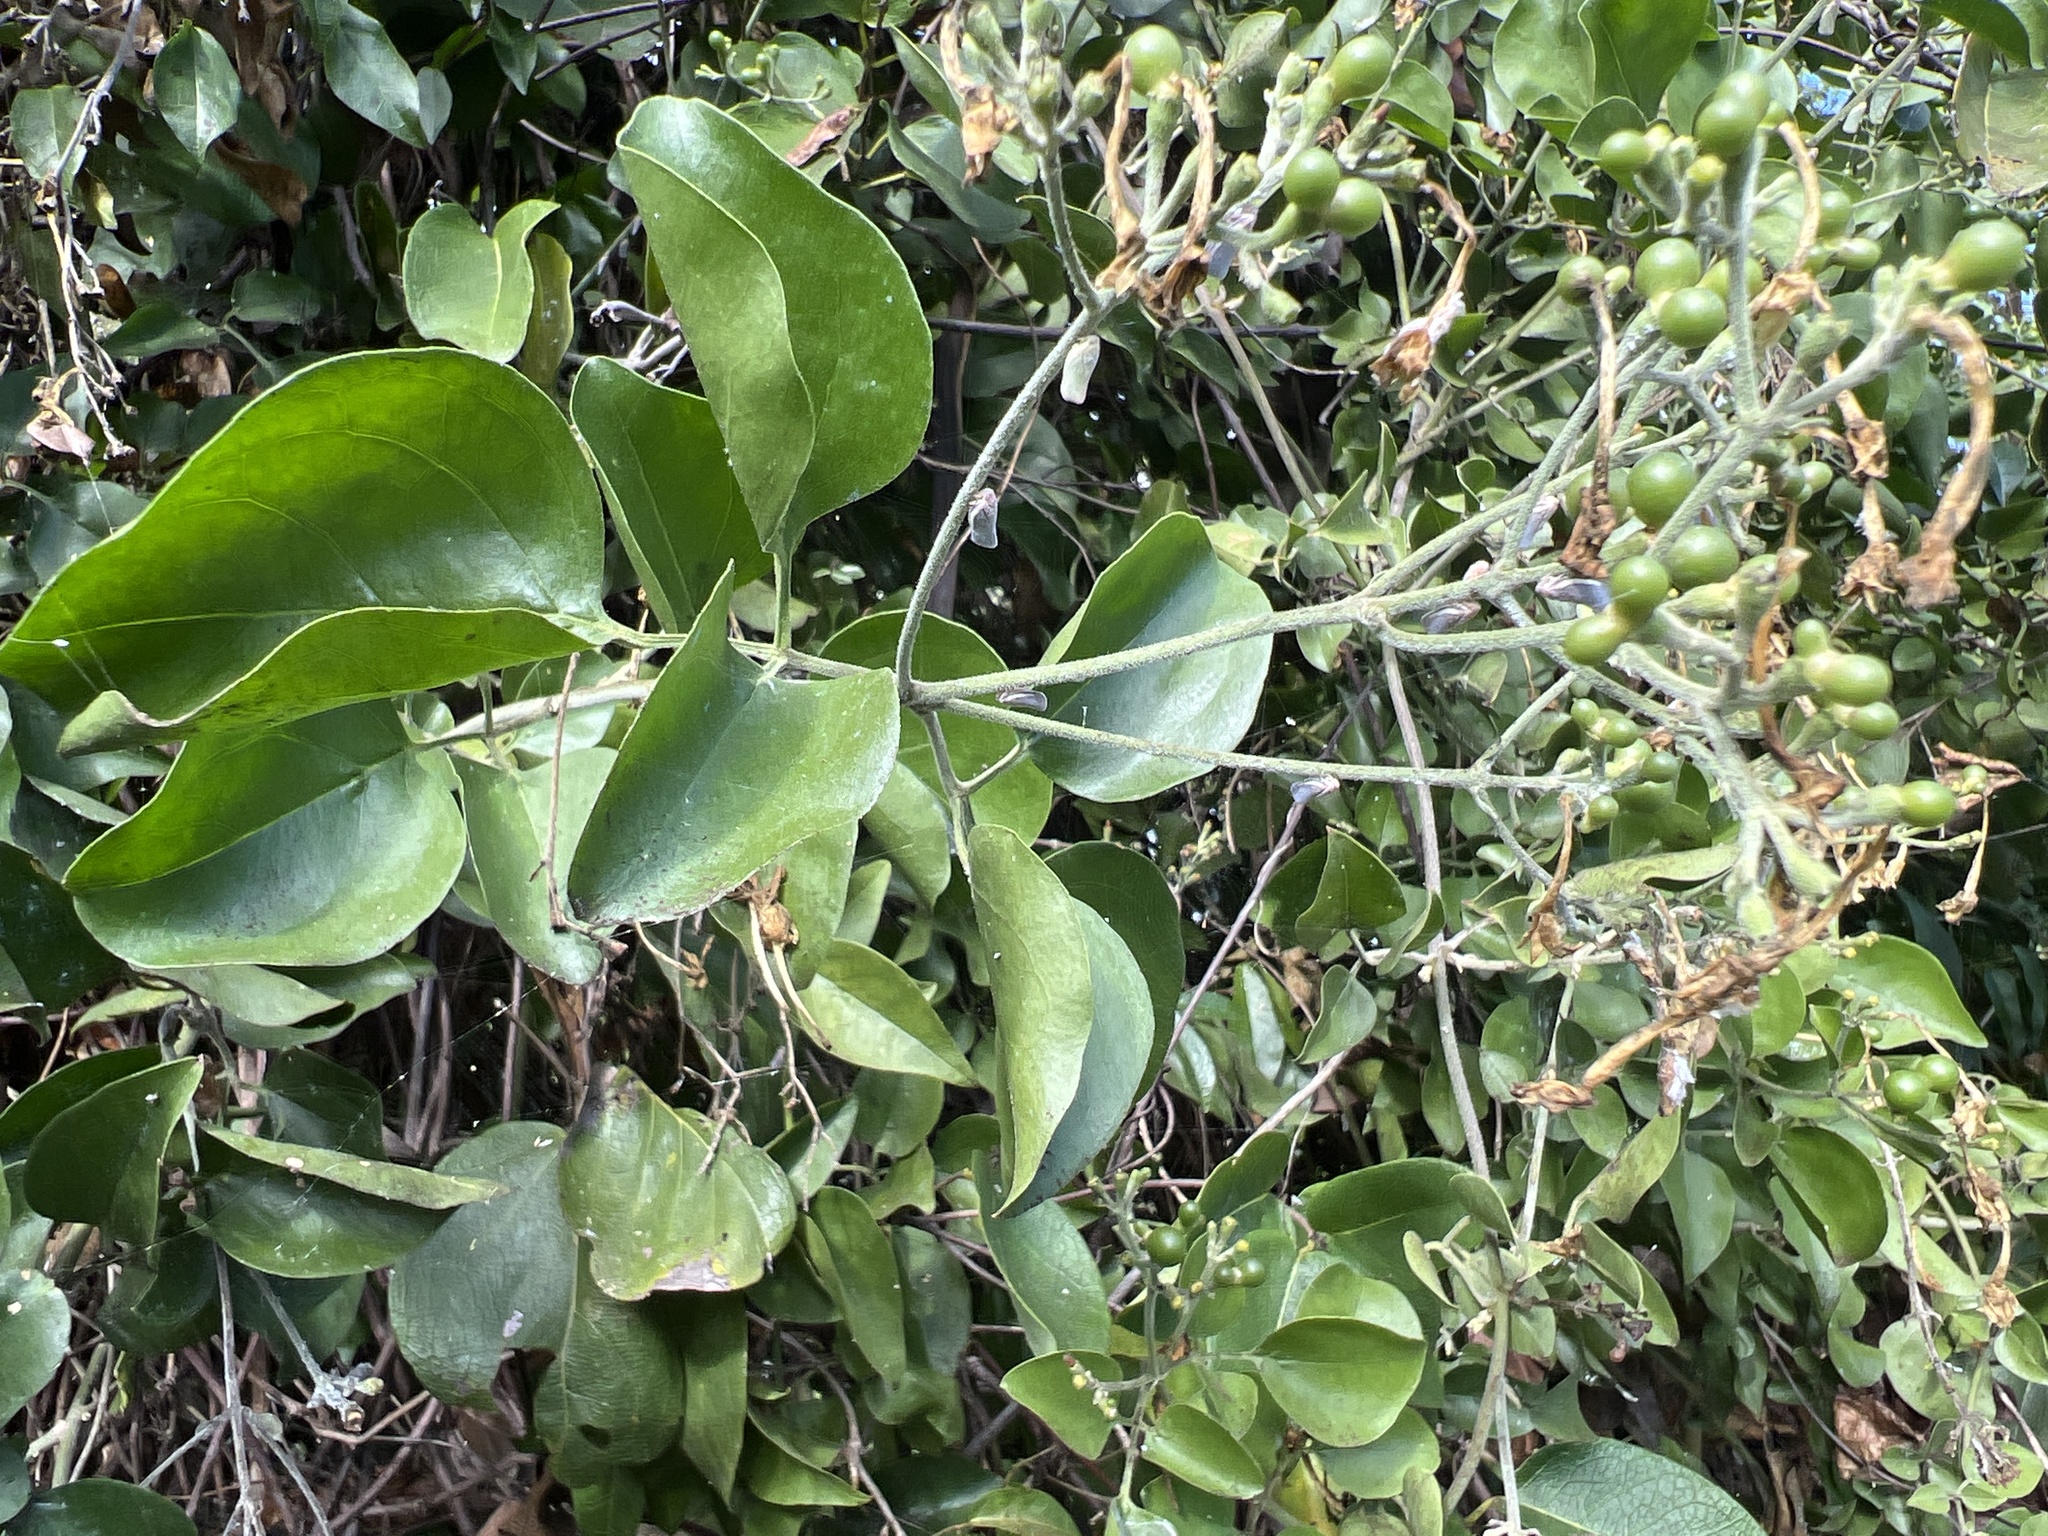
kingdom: Plantae
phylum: Tracheophyta
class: Magnoliopsida
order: Lamiales
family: Oleaceae
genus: Jasminum
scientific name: Jasminum fluminense
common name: Brazilian jasmine
